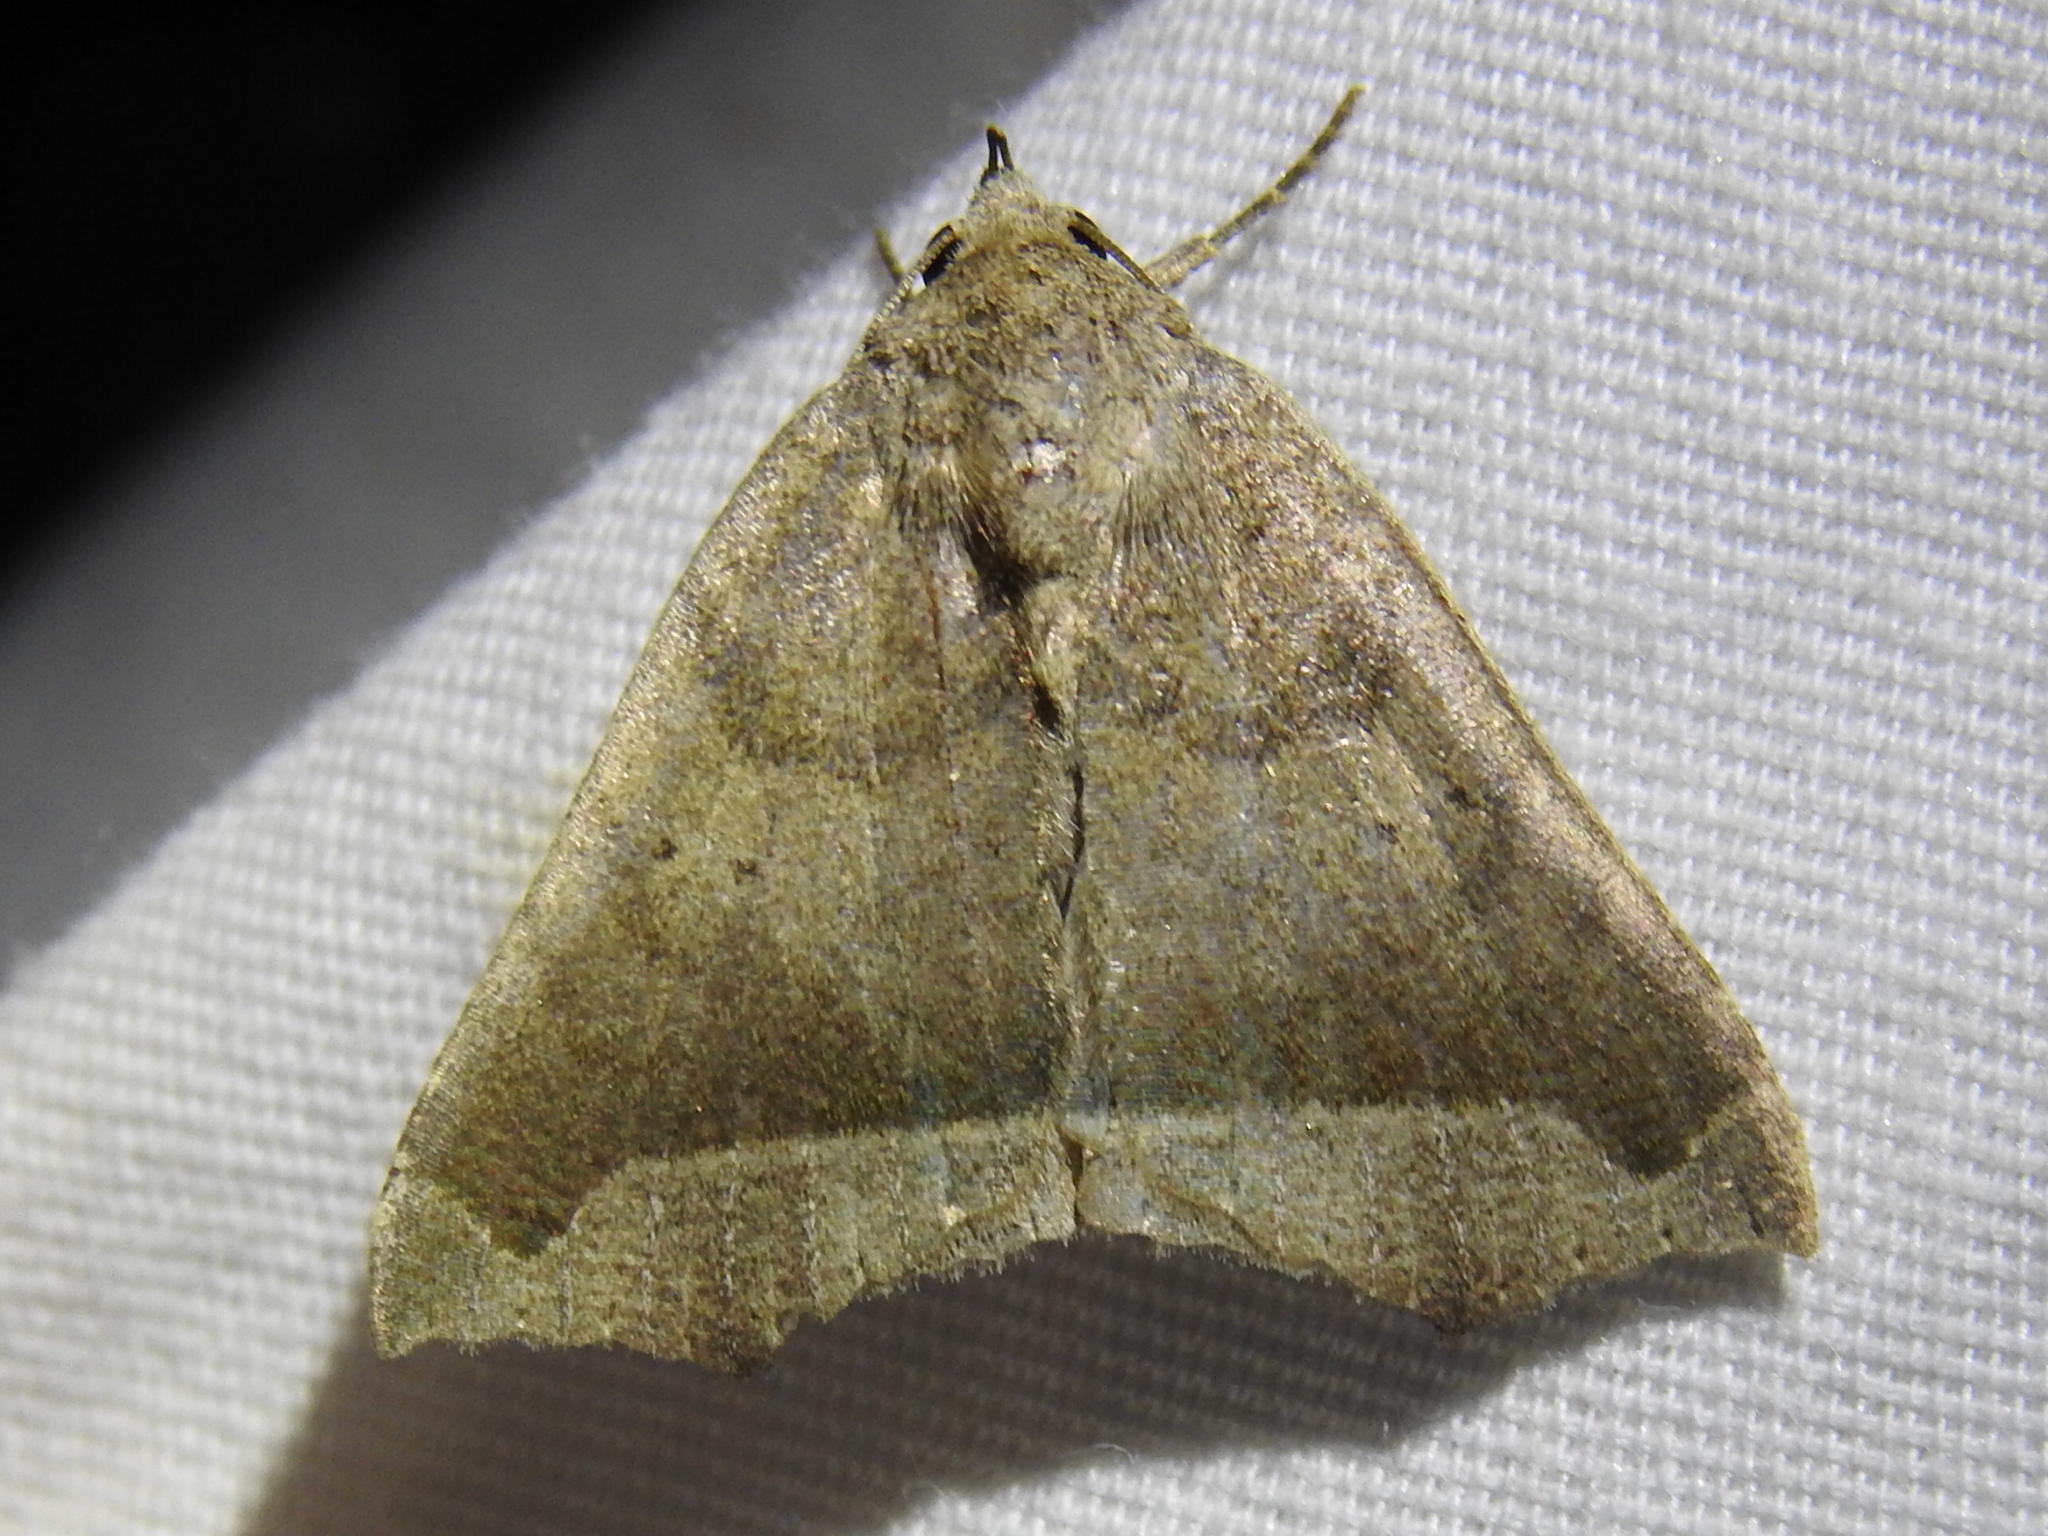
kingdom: Animalia
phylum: Arthropoda
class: Insecta
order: Lepidoptera
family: Erebidae
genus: Bendisodes
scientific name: Bendisodes aeolia
